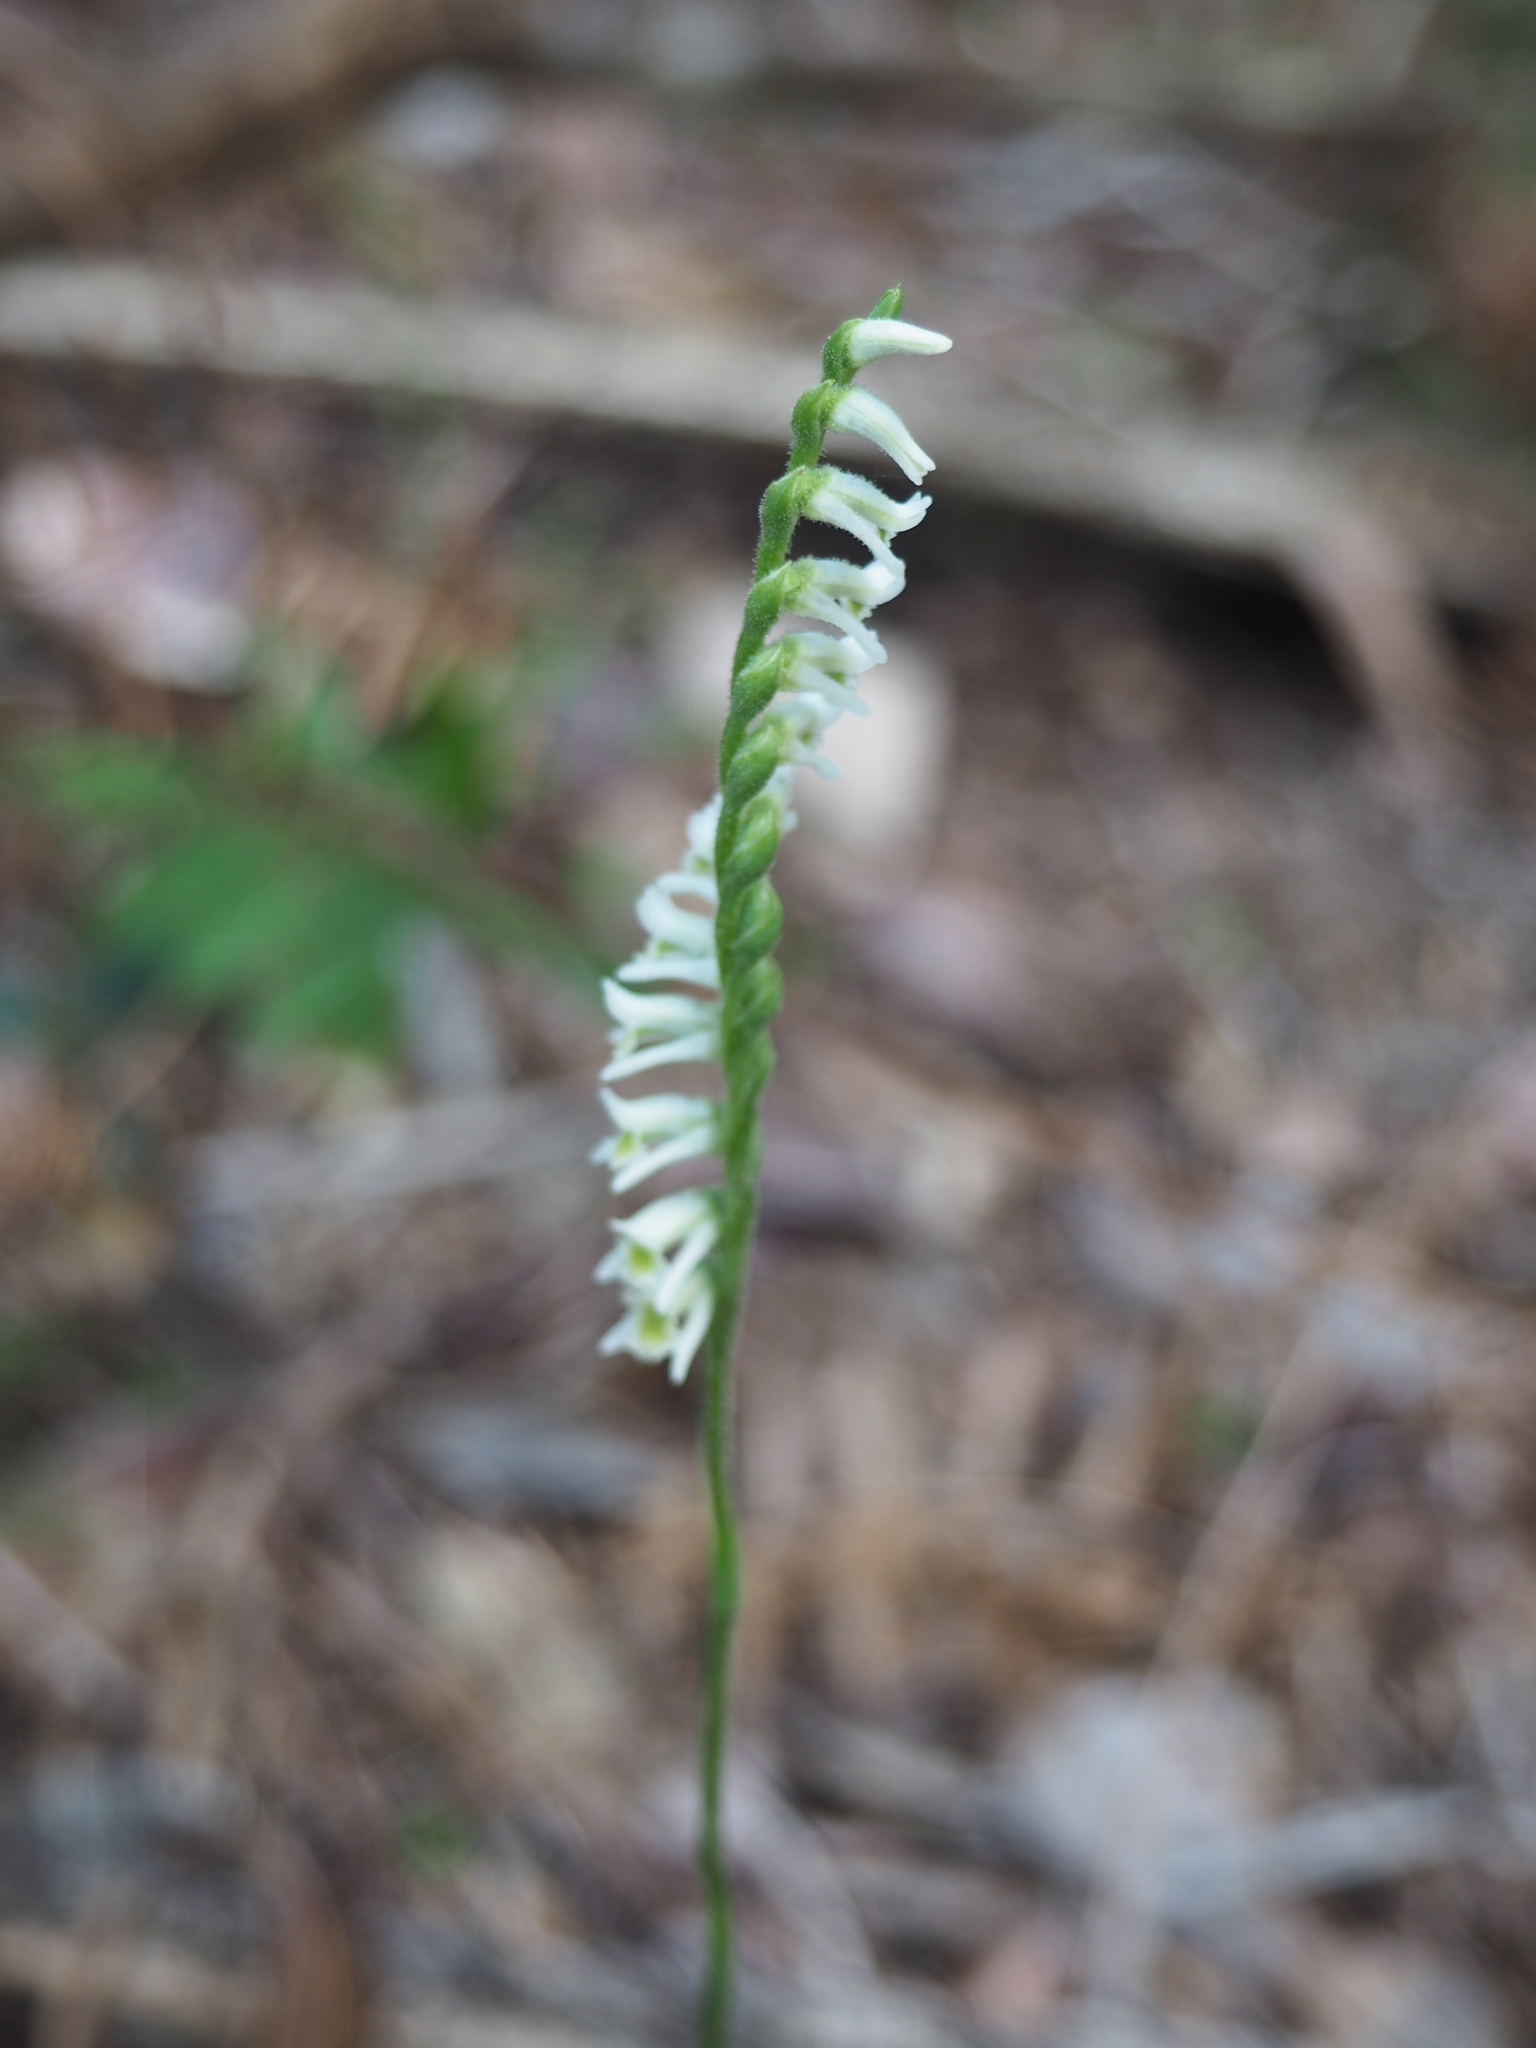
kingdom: Plantae
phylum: Tracheophyta
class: Liliopsida
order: Asparagales
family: Orchidaceae
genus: Spiranthes
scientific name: Spiranthes torta
